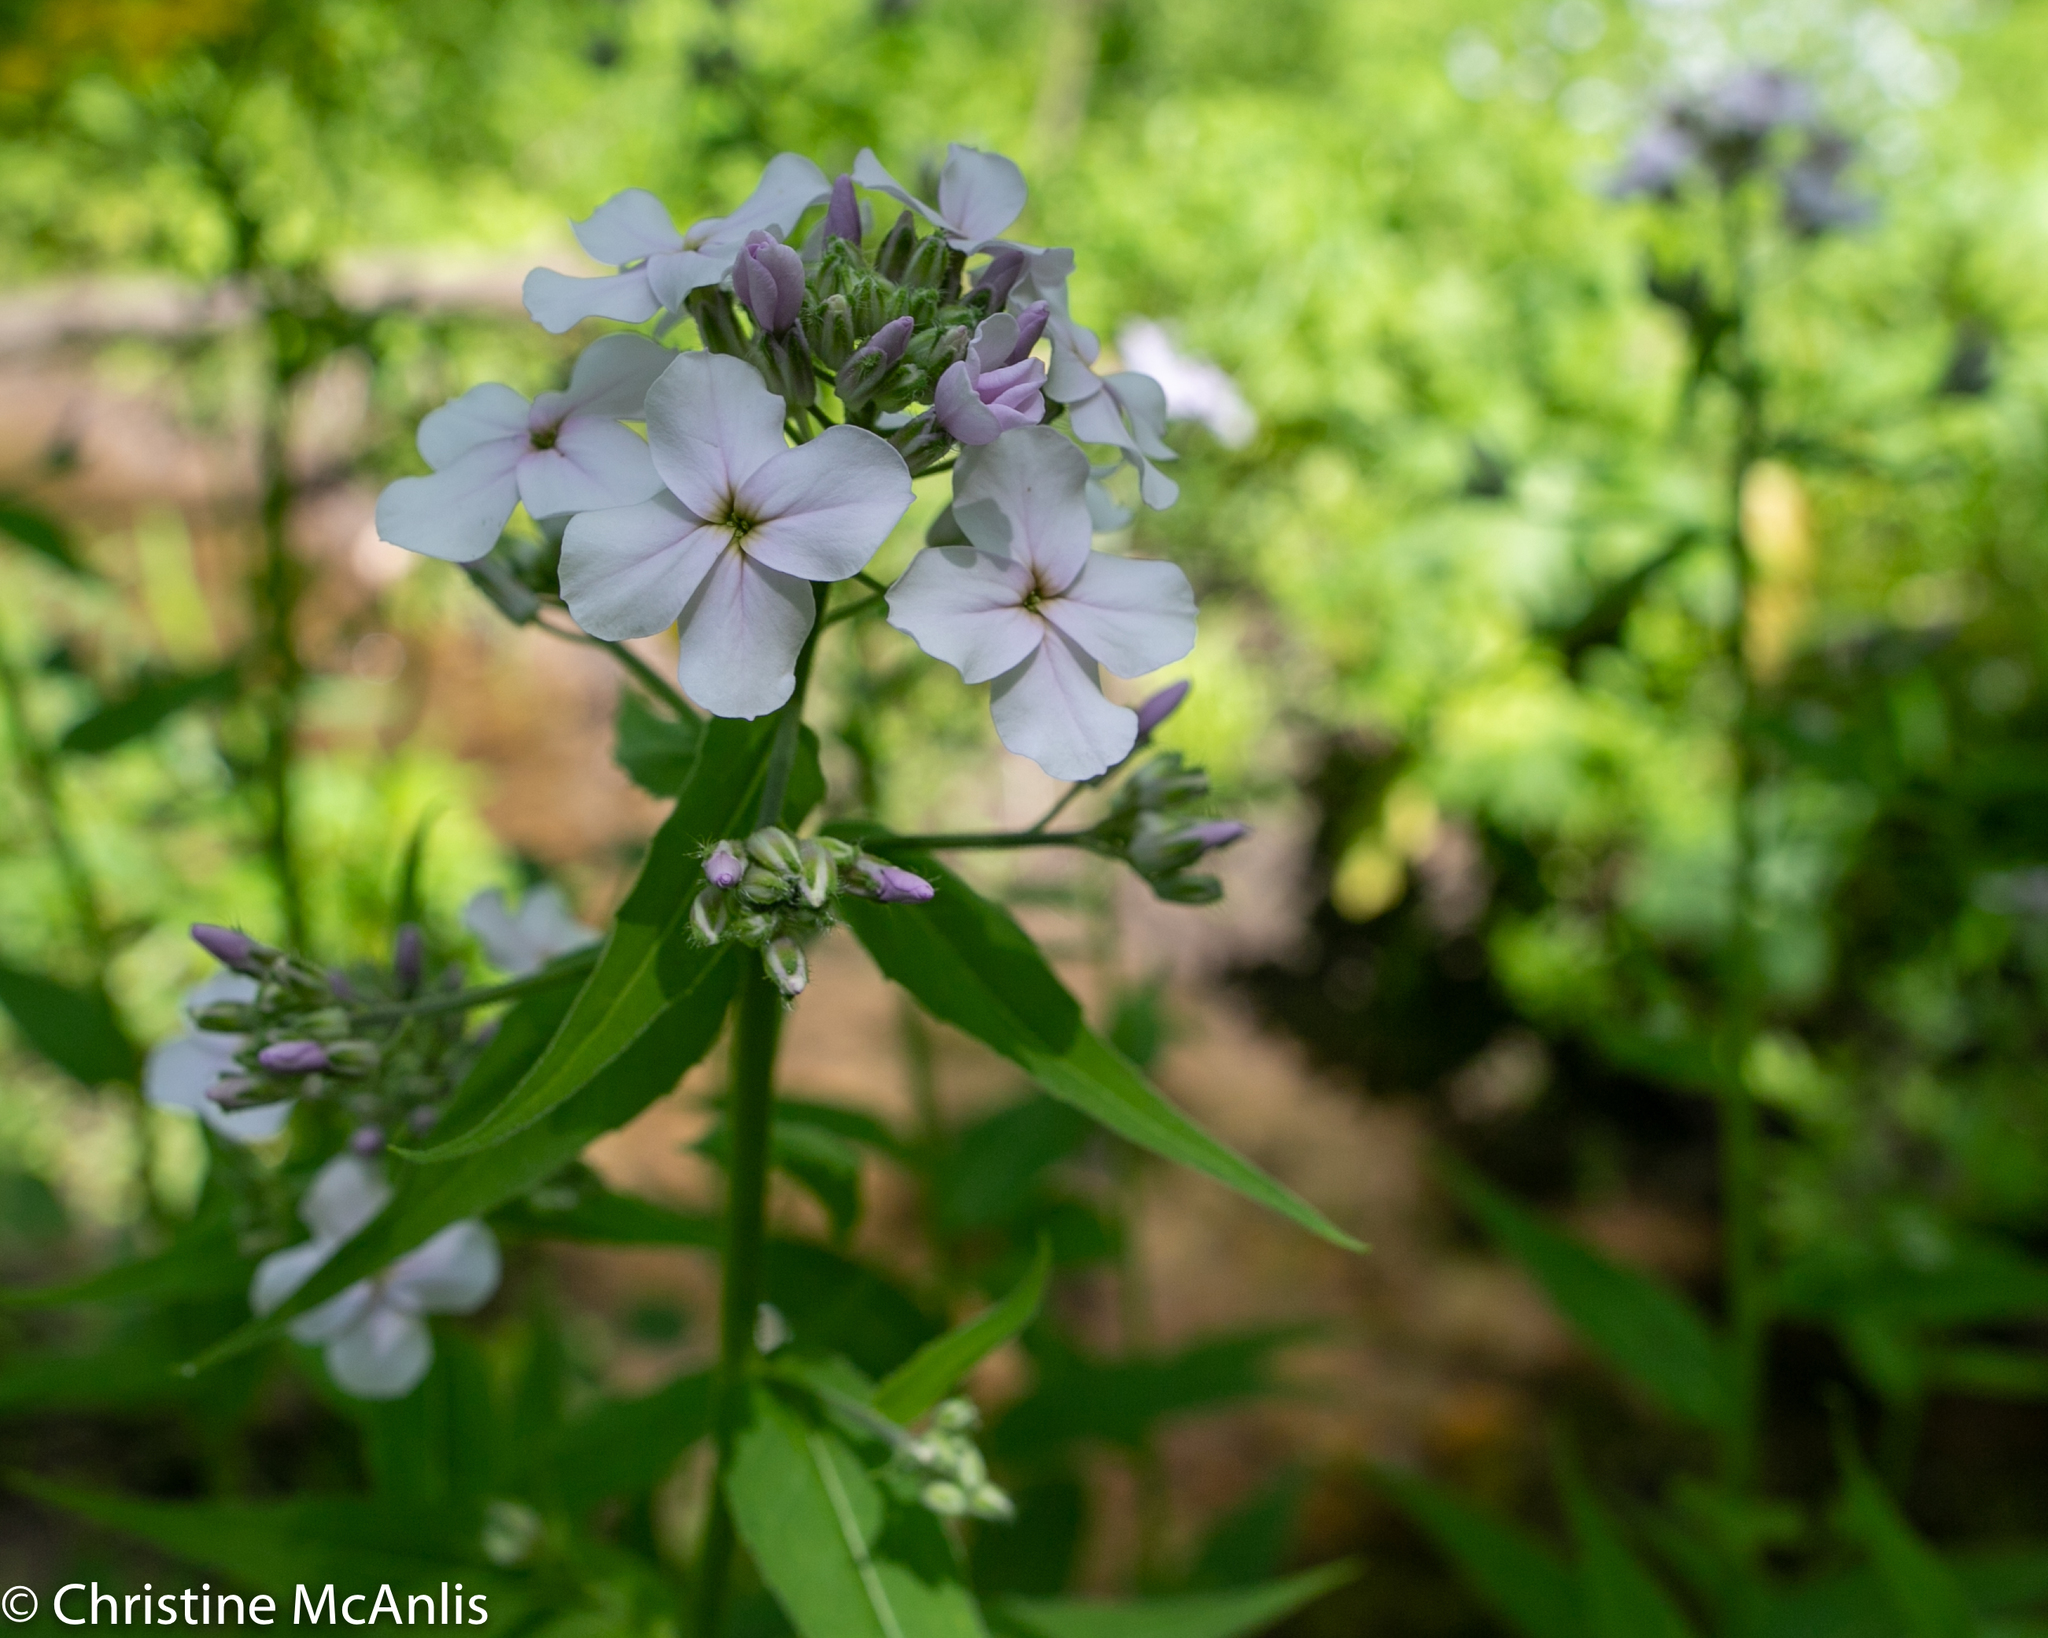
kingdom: Plantae
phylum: Tracheophyta
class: Magnoliopsida
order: Brassicales
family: Brassicaceae
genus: Hesperis
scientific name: Hesperis matronalis
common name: Dame's-violet
